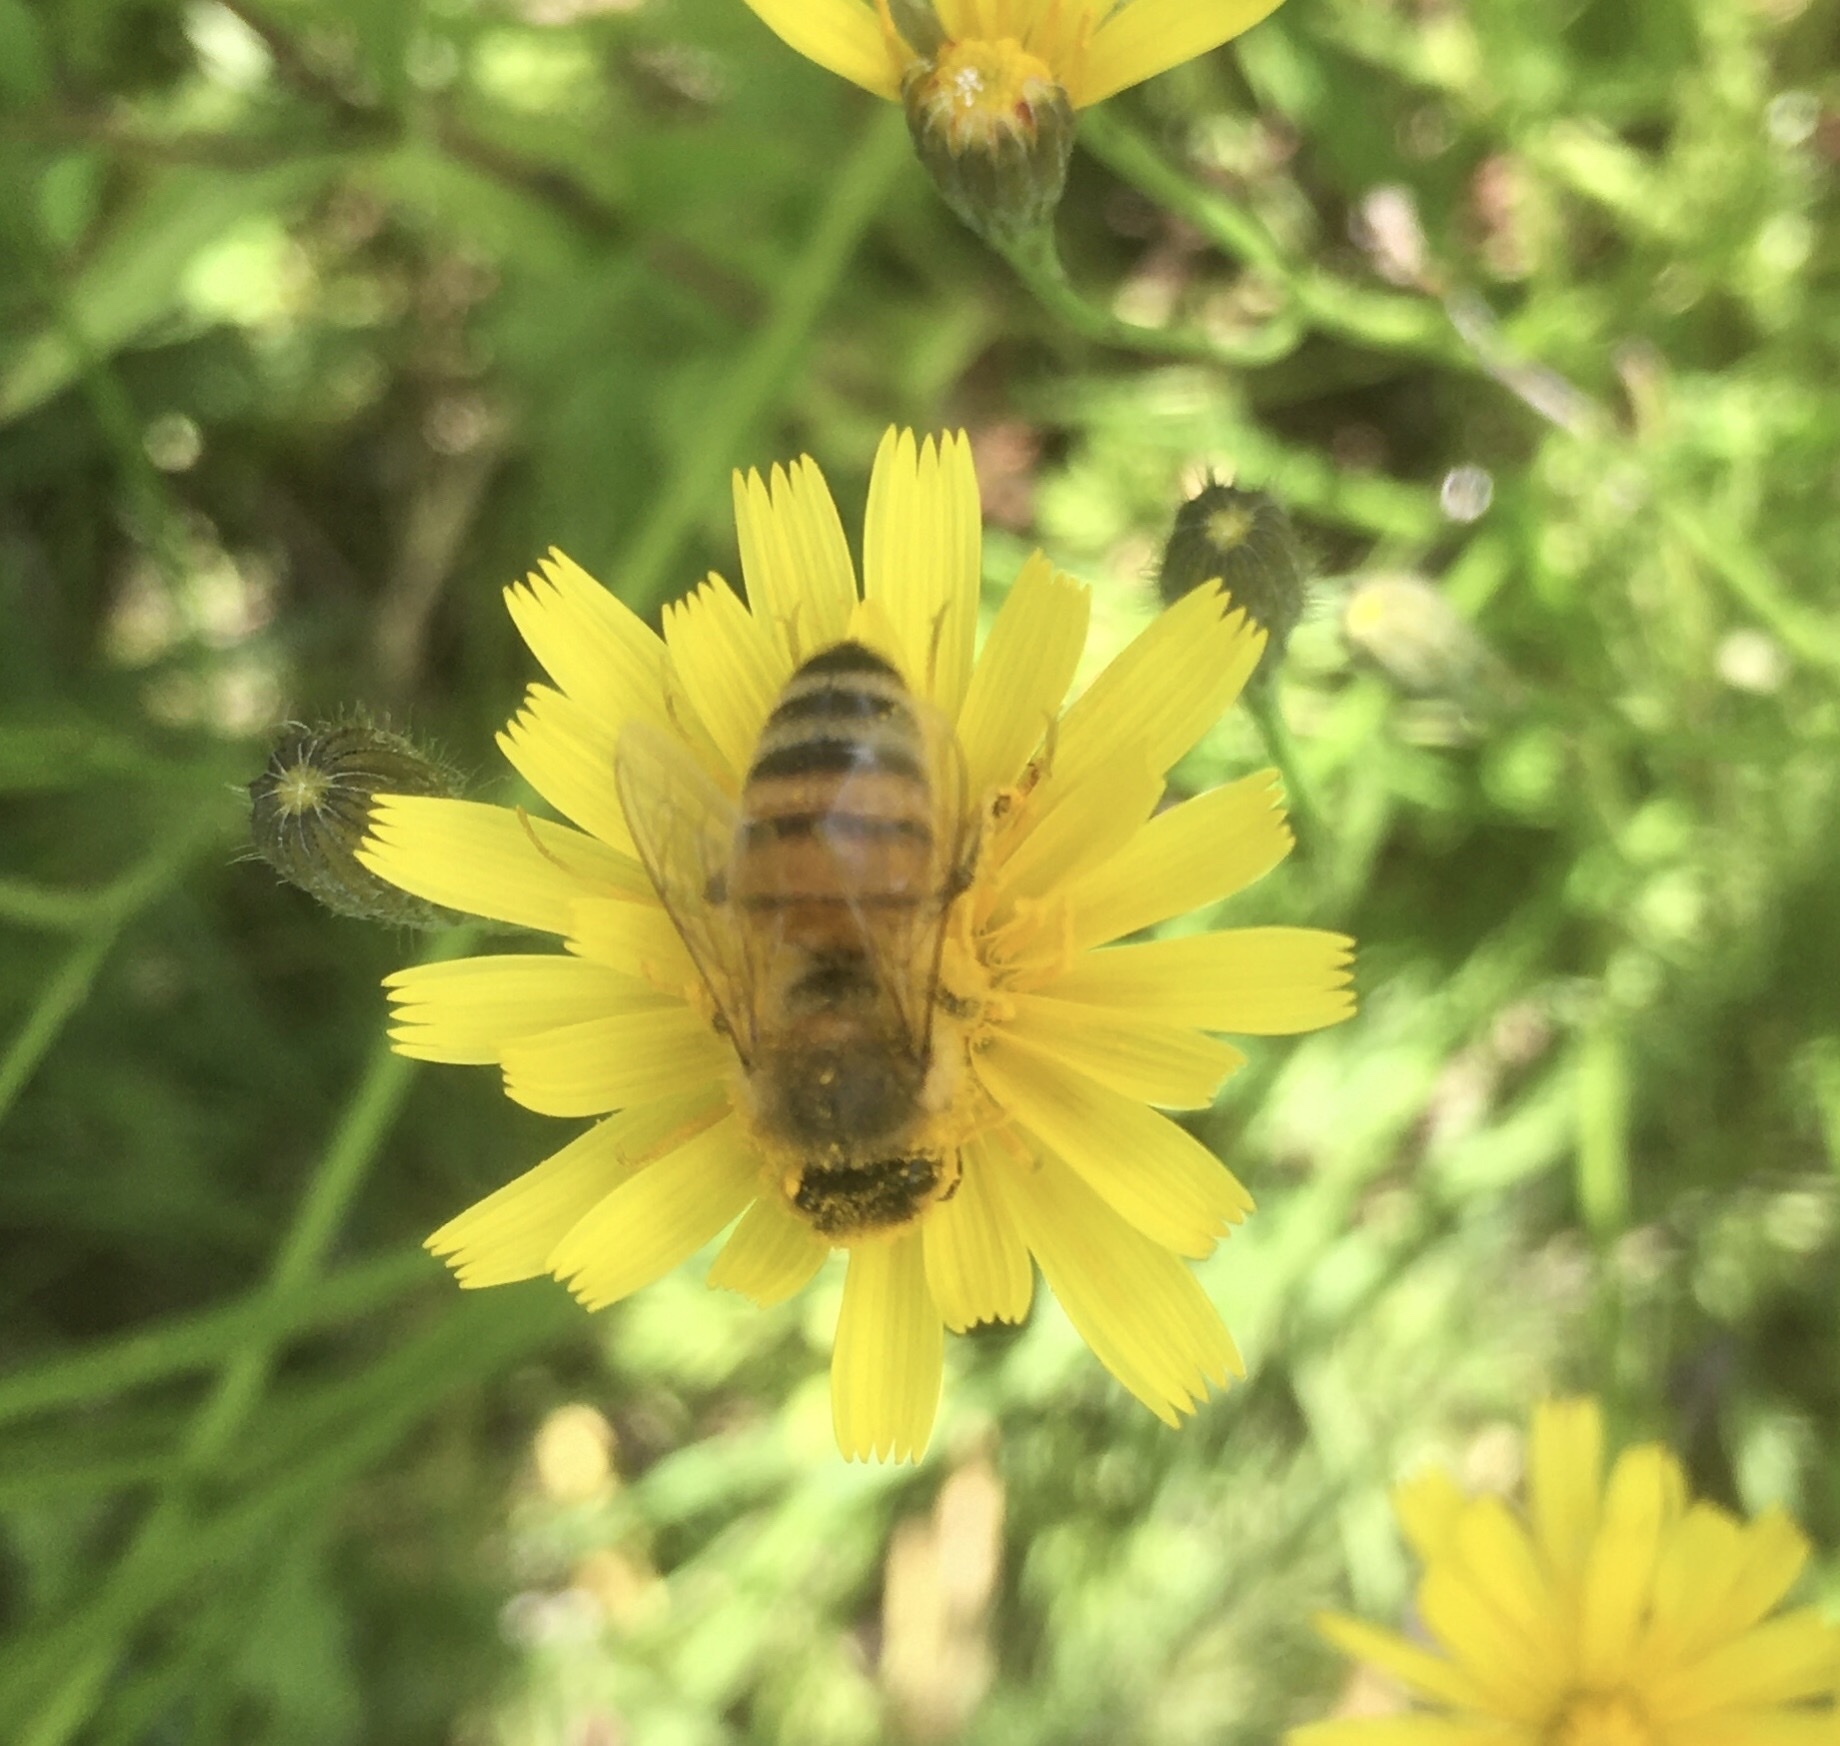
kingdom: Animalia
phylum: Arthropoda
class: Insecta
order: Hymenoptera
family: Apidae
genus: Apis
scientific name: Apis mellifera
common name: Honey bee
